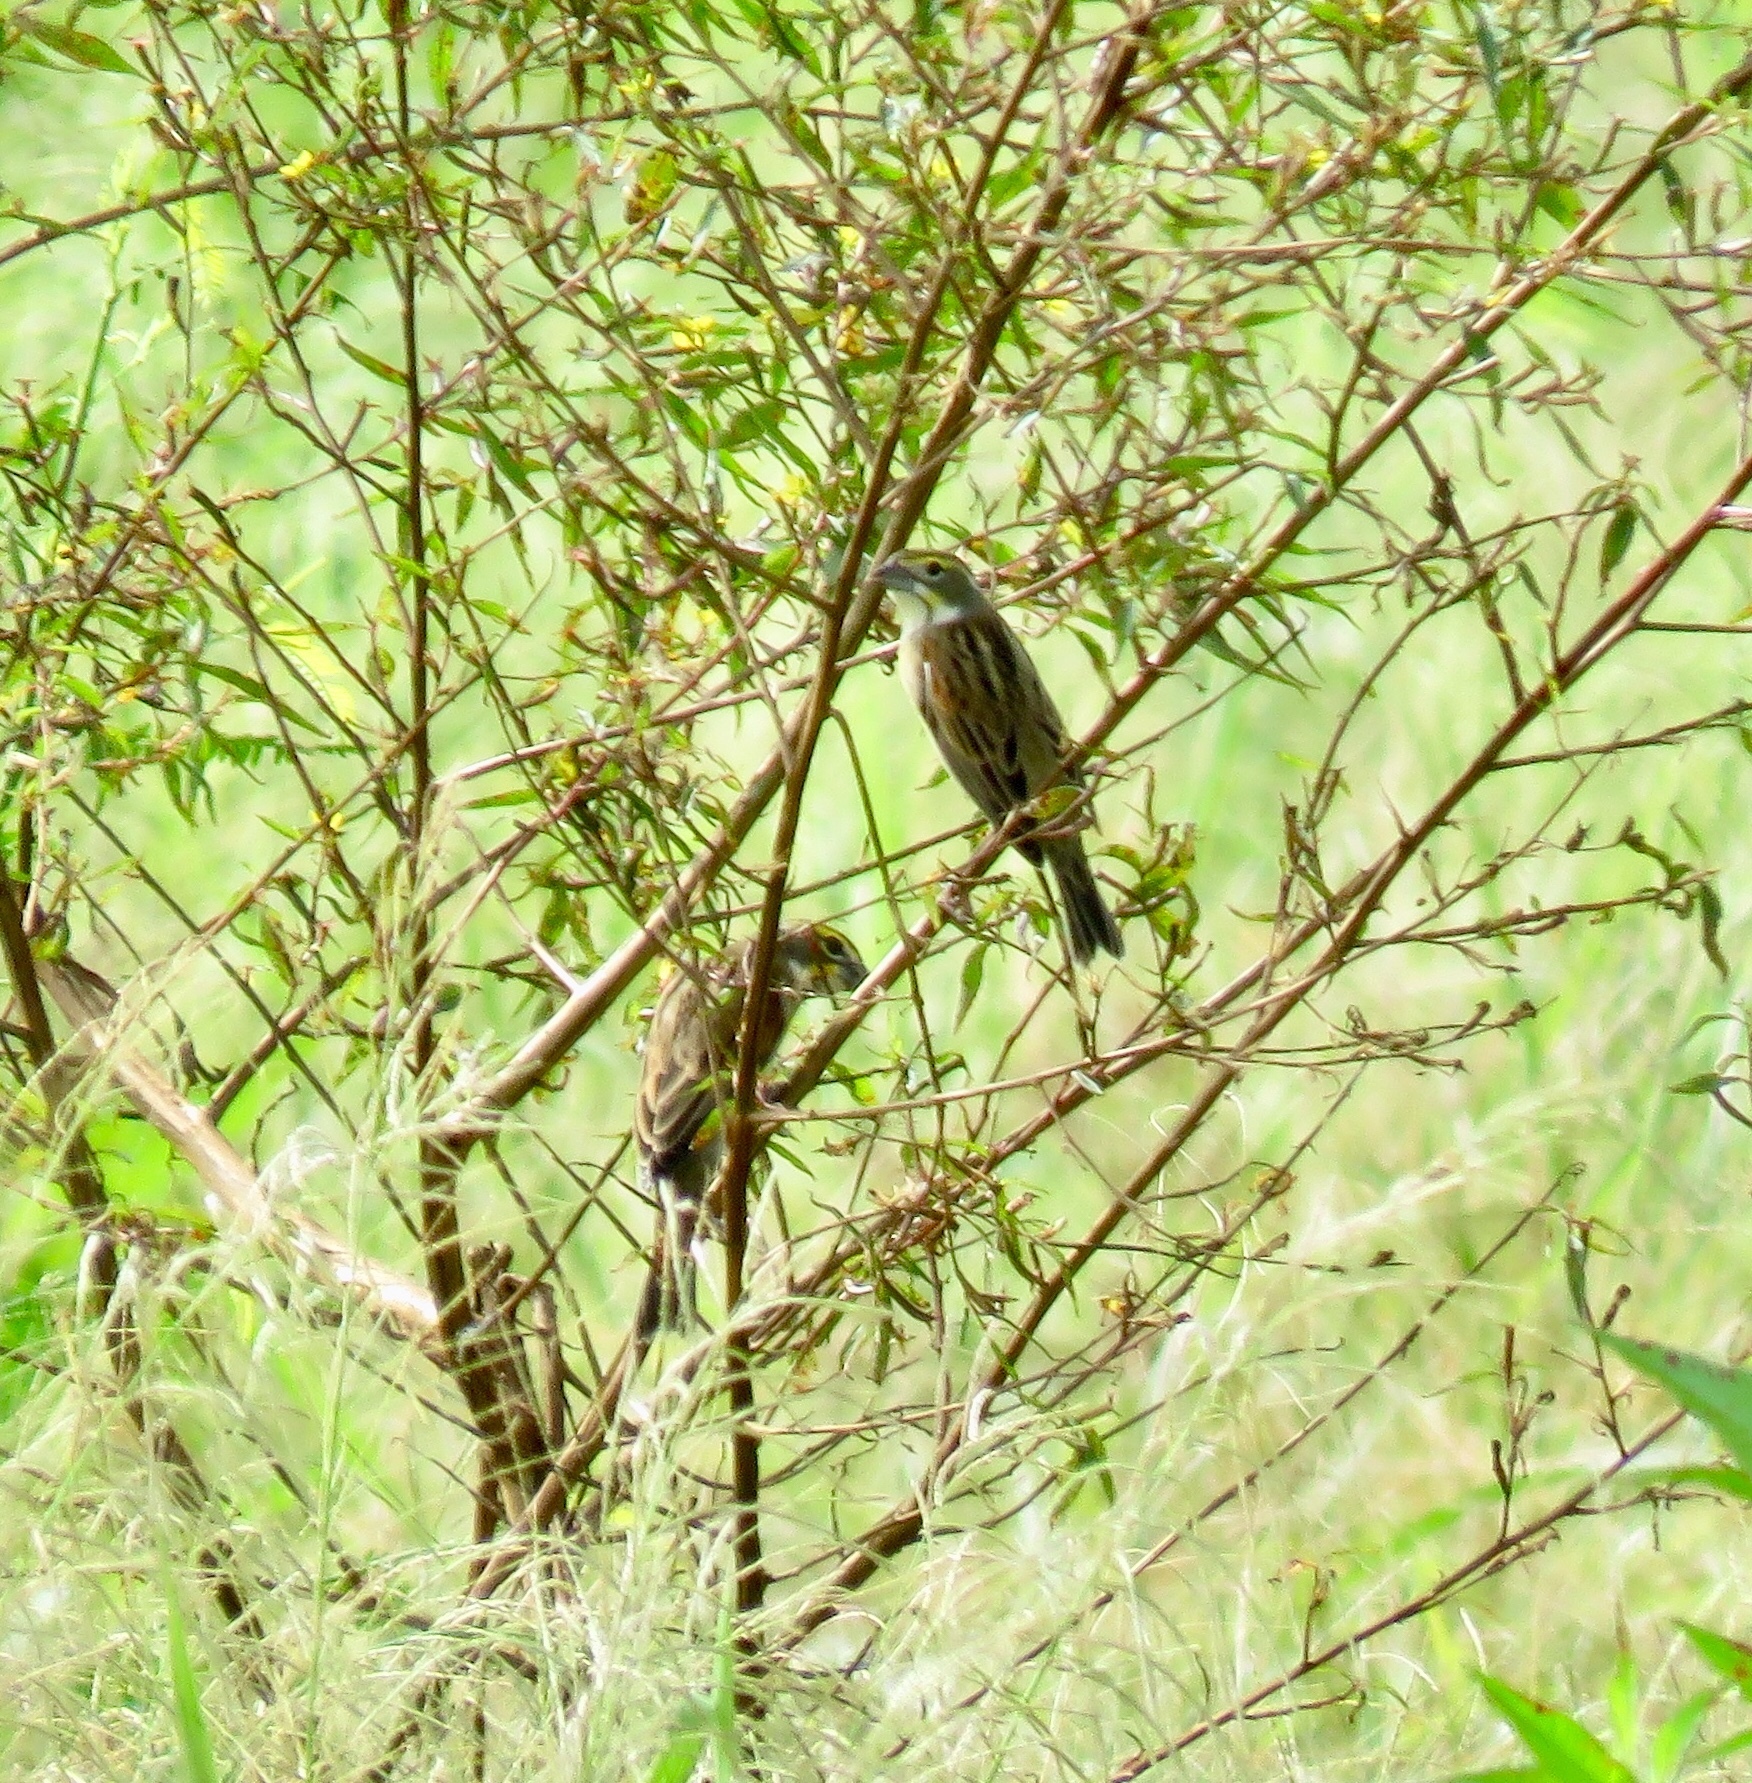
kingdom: Animalia
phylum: Chordata
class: Aves
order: Passeriformes
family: Cardinalidae
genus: Spiza
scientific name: Spiza americana
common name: Dickcissel
